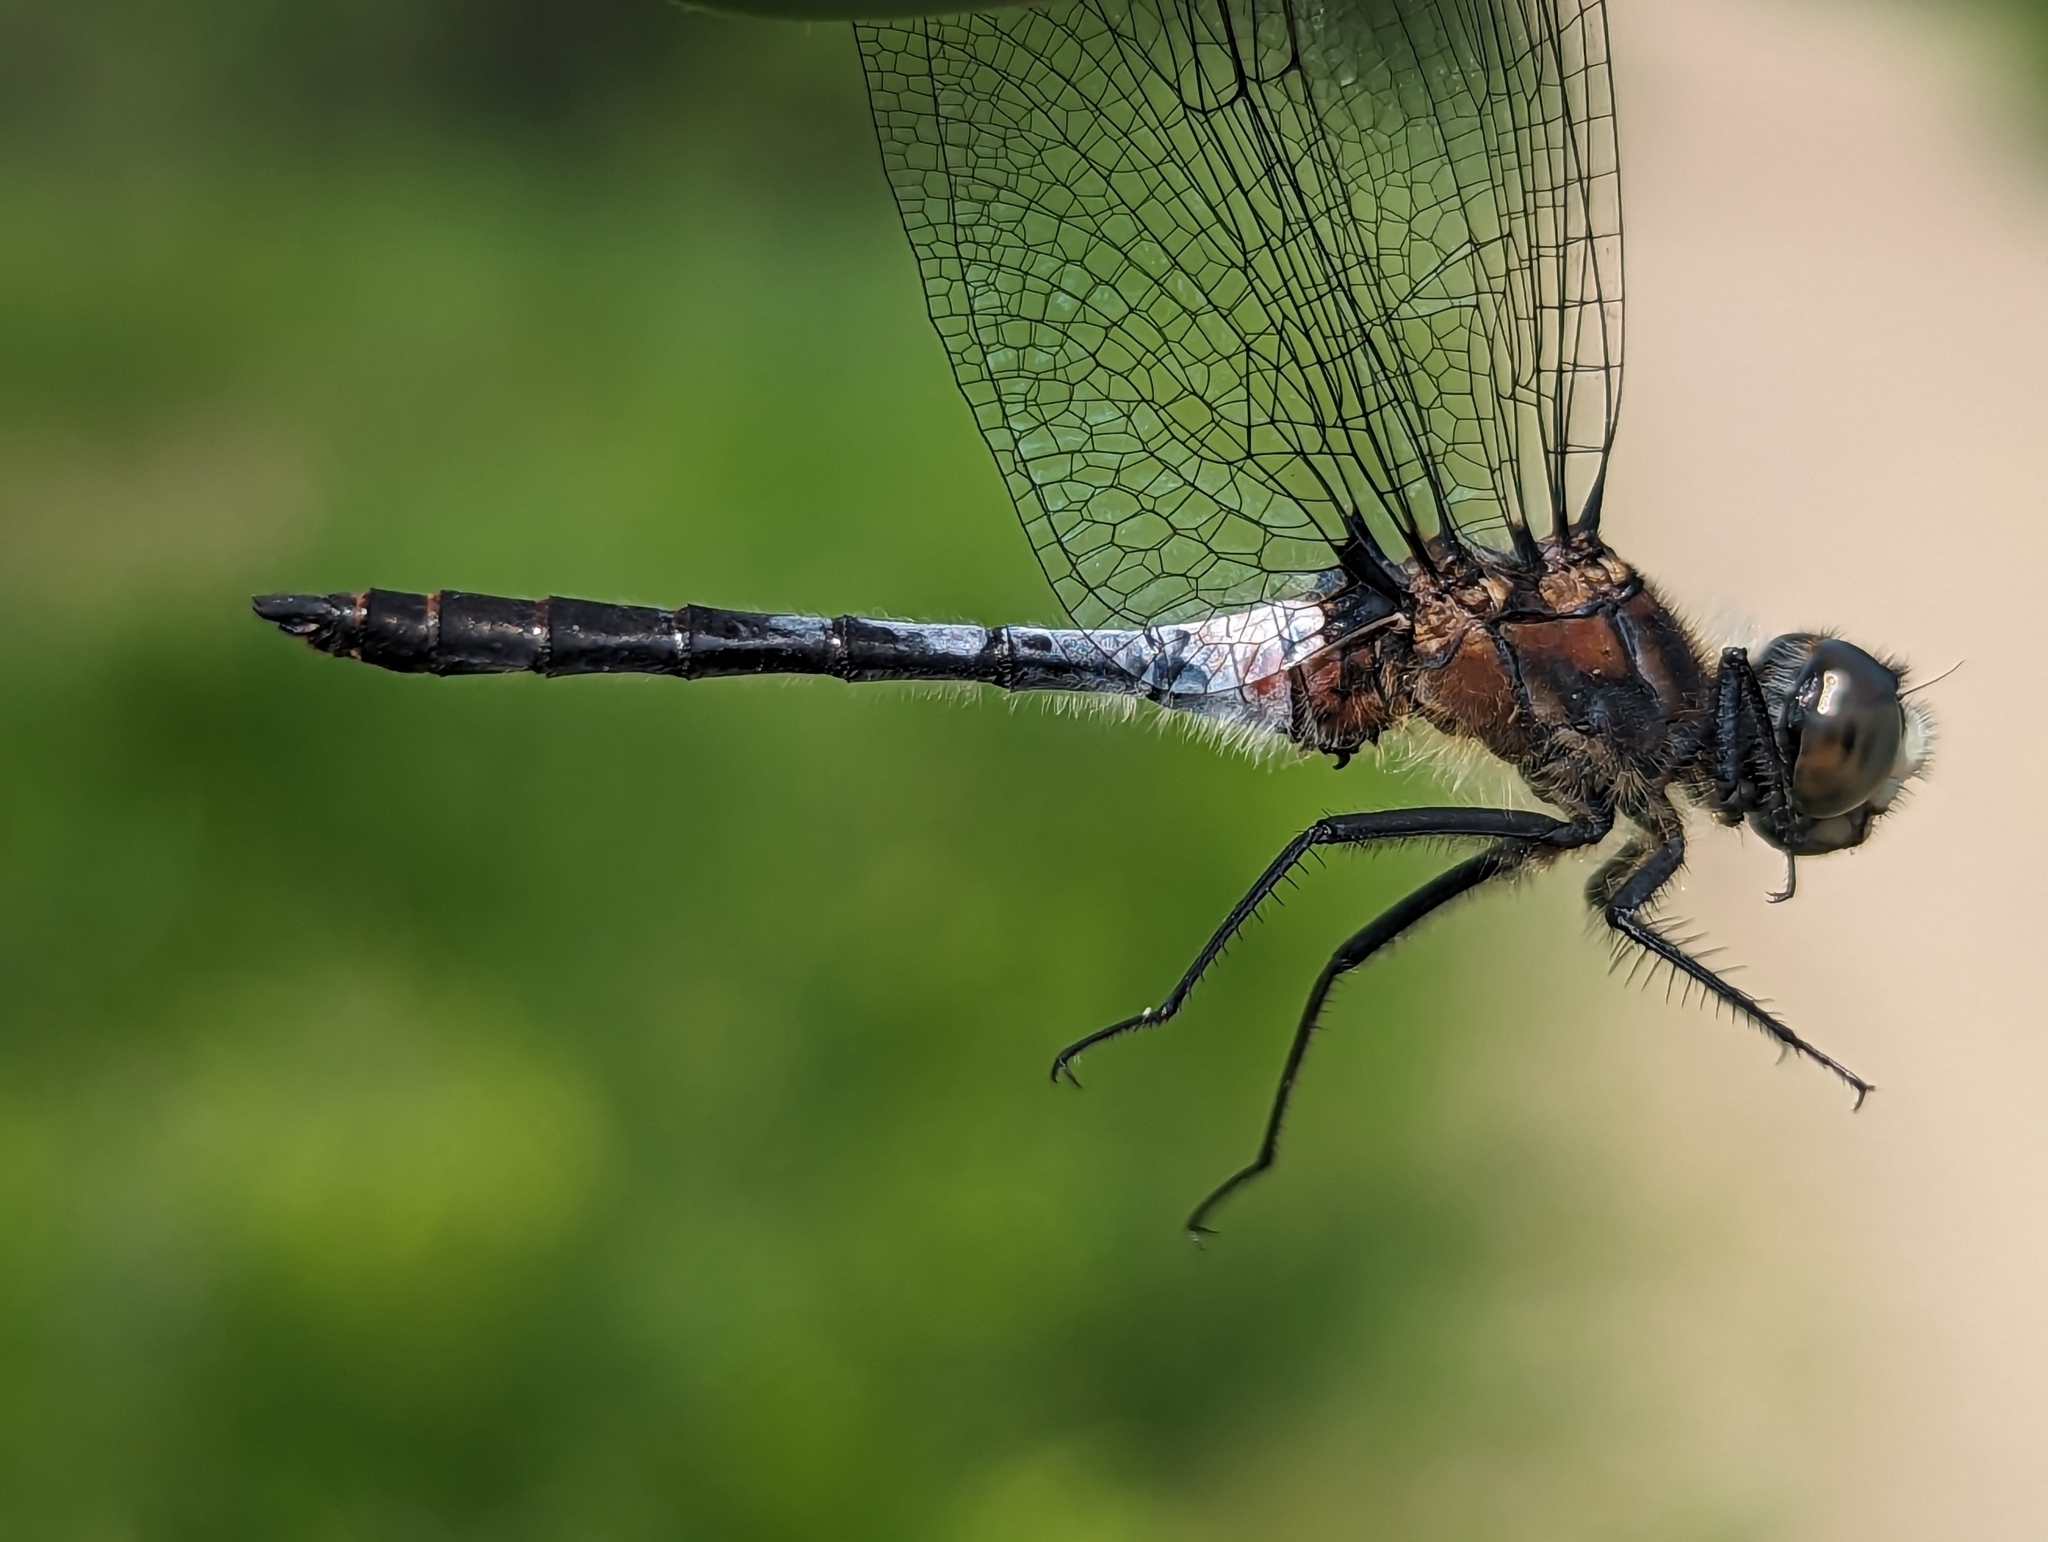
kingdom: Animalia
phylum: Arthropoda
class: Insecta
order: Odonata
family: Libellulidae
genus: Leucorrhinia
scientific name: Leucorrhinia frigida
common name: Frosted whiteface
